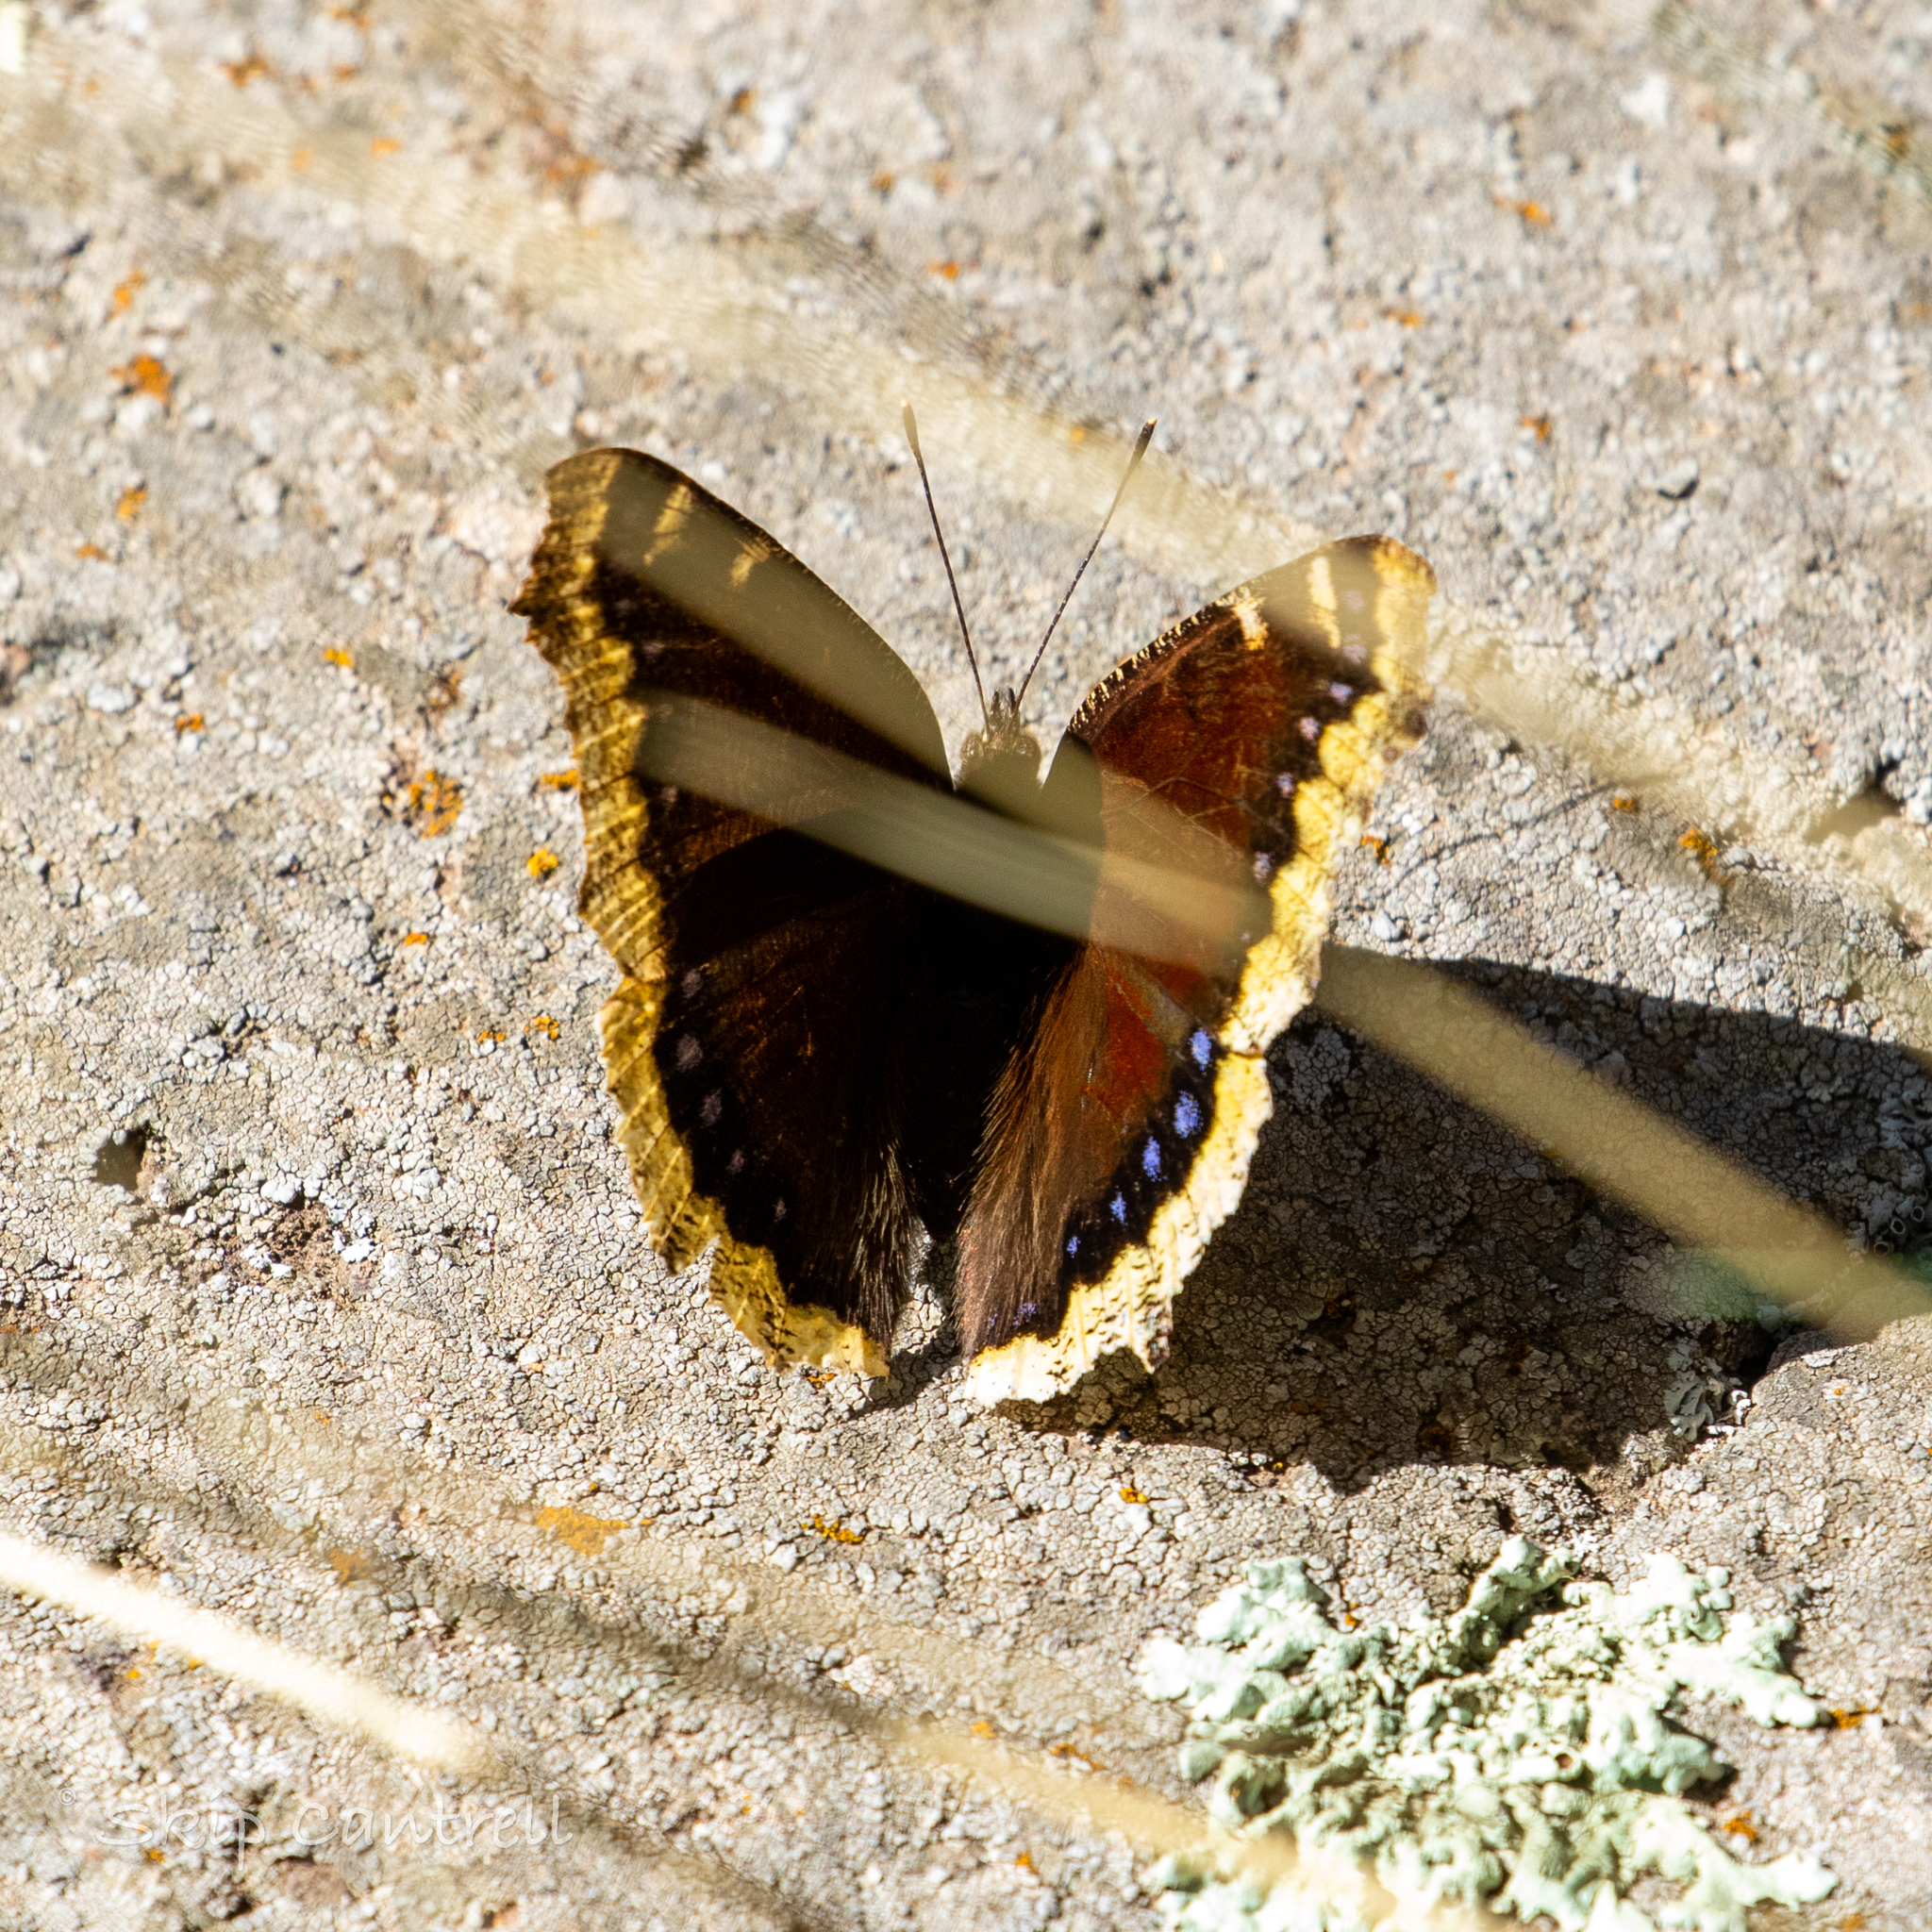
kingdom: Animalia
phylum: Arthropoda
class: Insecta
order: Lepidoptera
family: Nymphalidae
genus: Nymphalis
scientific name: Nymphalis antiopa
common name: Camberwell beauty
